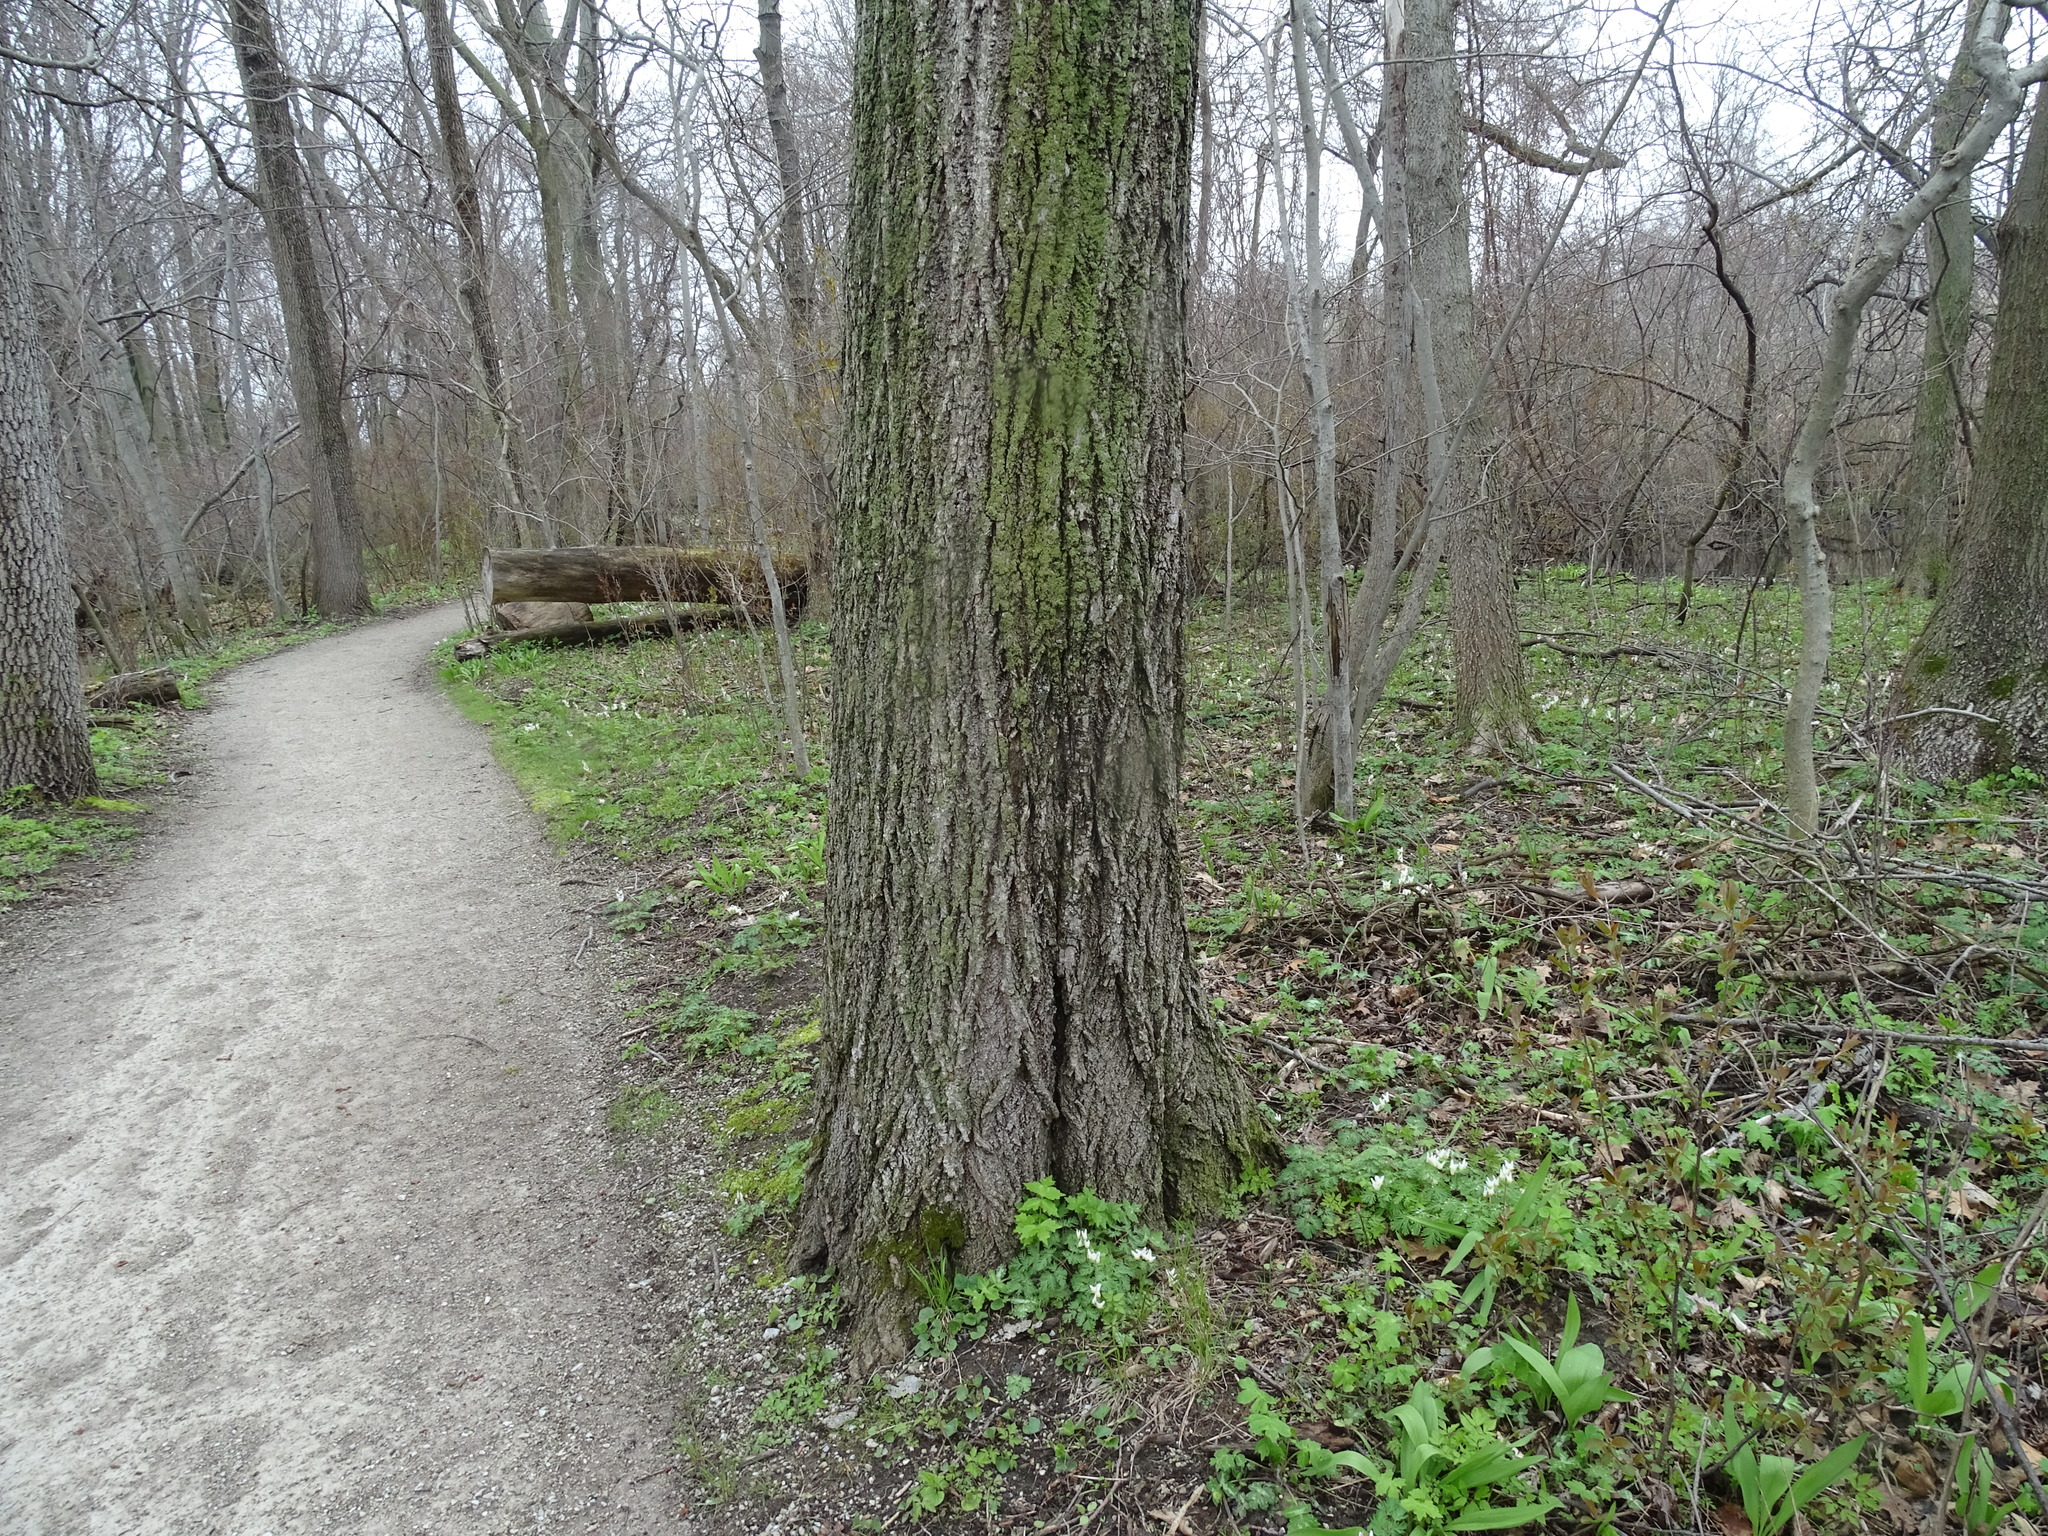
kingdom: Plantae
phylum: Tracheophyta
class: Magnoliopsida
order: Malvales
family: Malvaceae
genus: Tilia
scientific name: Tilia americana
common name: Basswood
